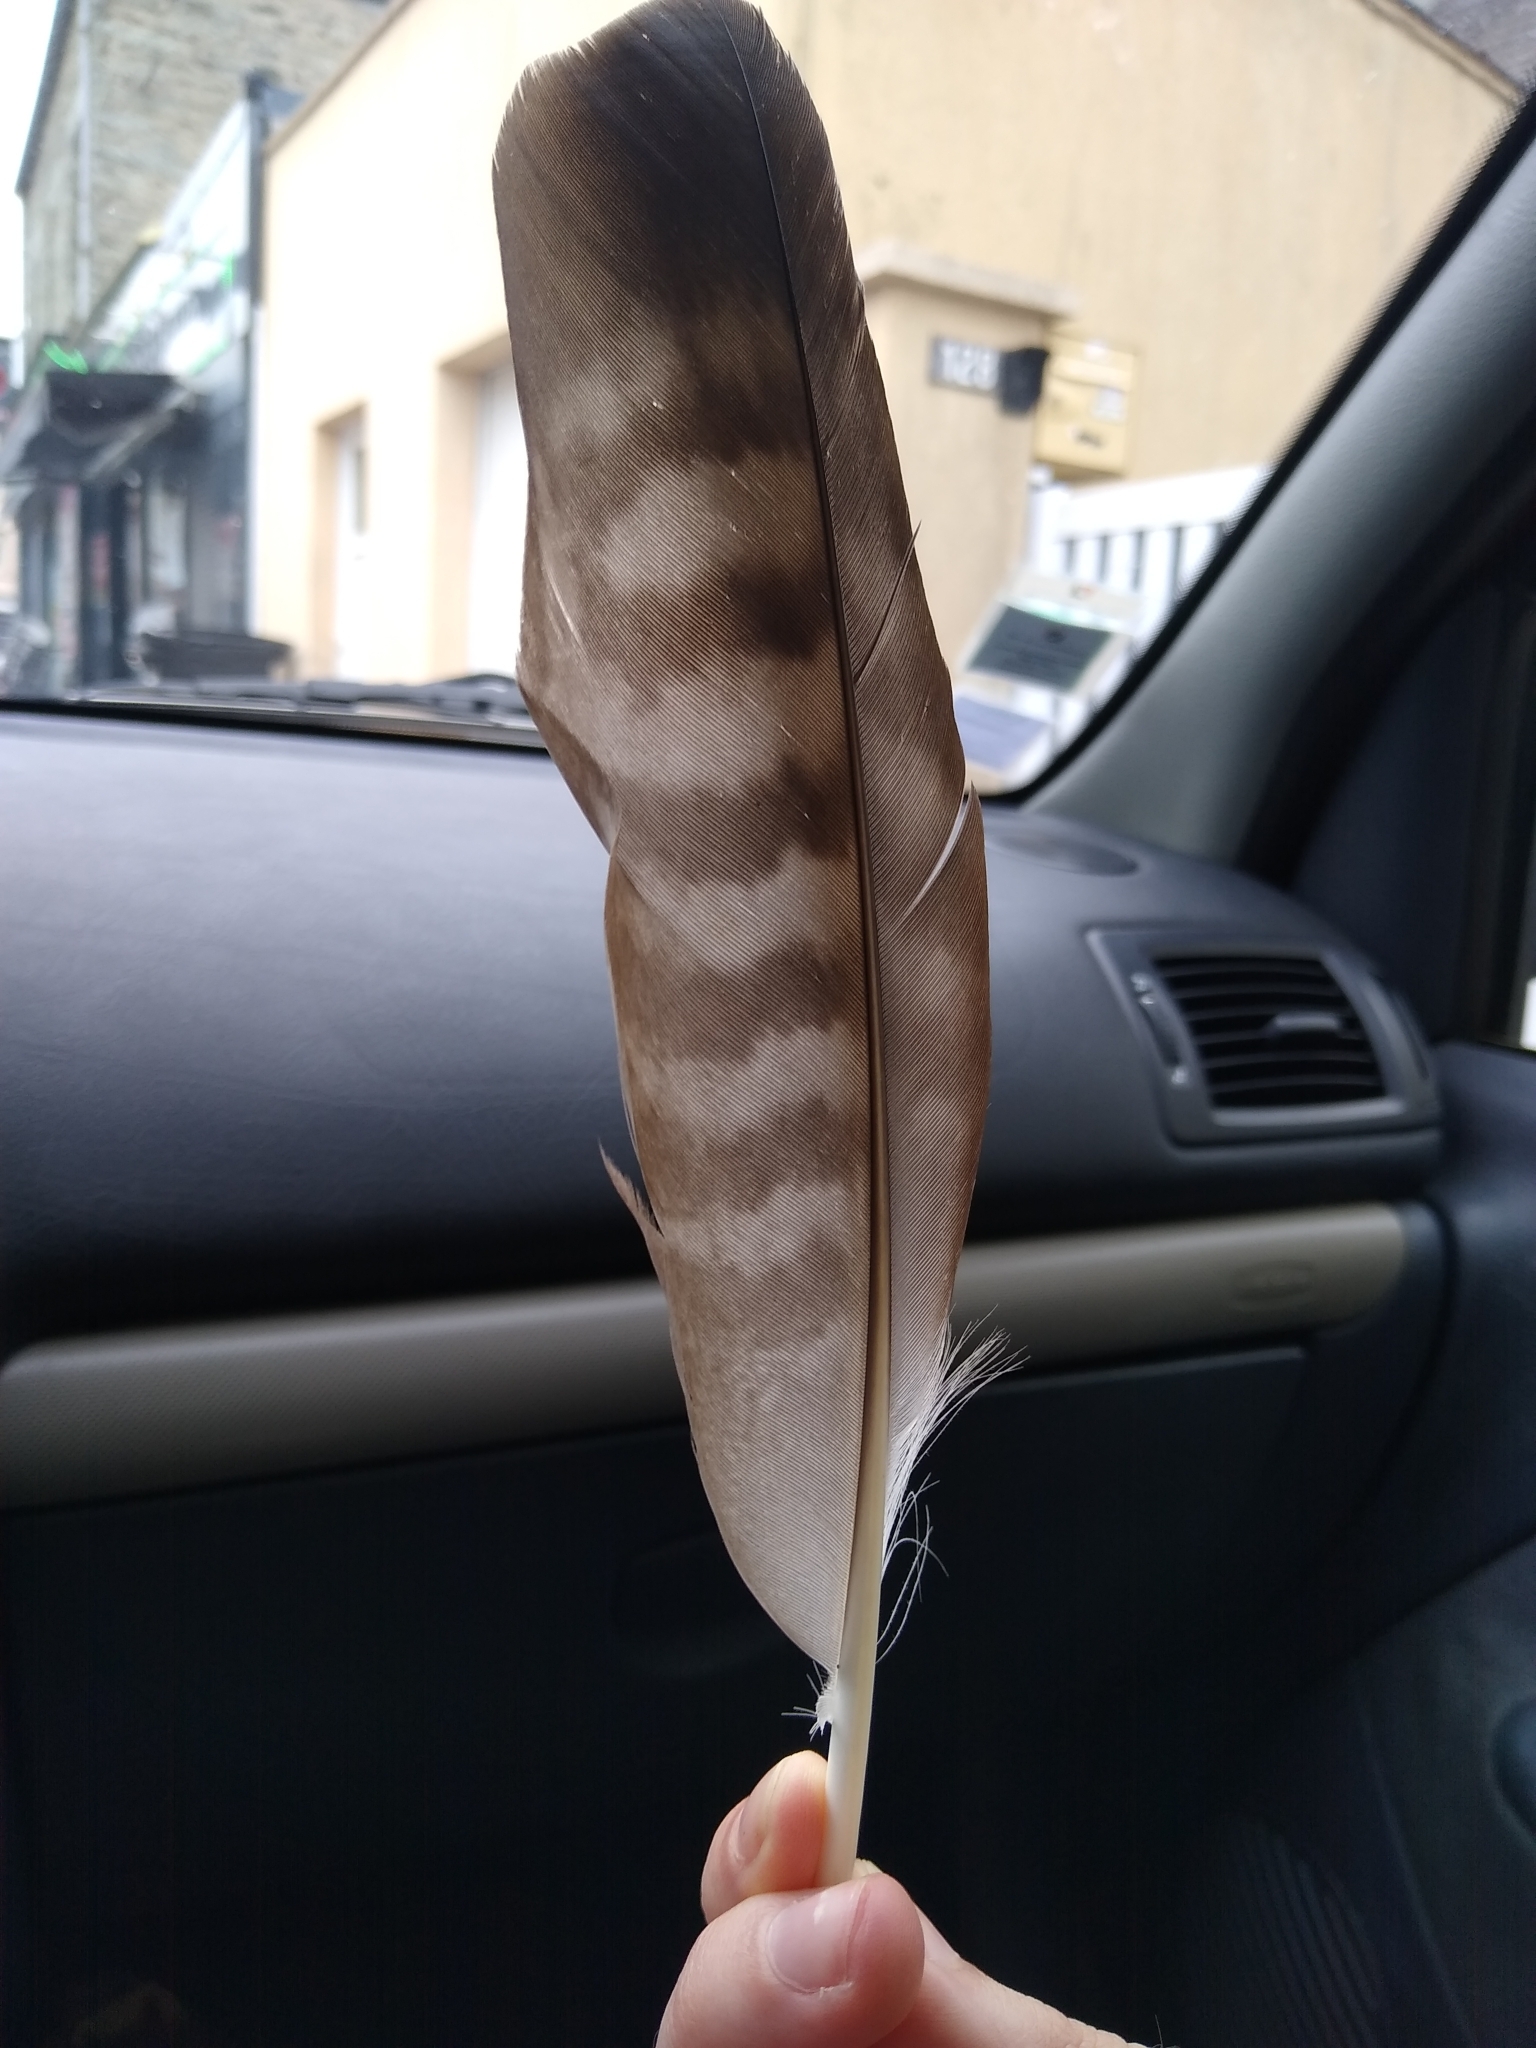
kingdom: Animalia
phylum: Chordata
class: Aves
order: Accipitriformes
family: Accipitridae
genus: Buteo
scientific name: Buteo buteo
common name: Common buzzard
